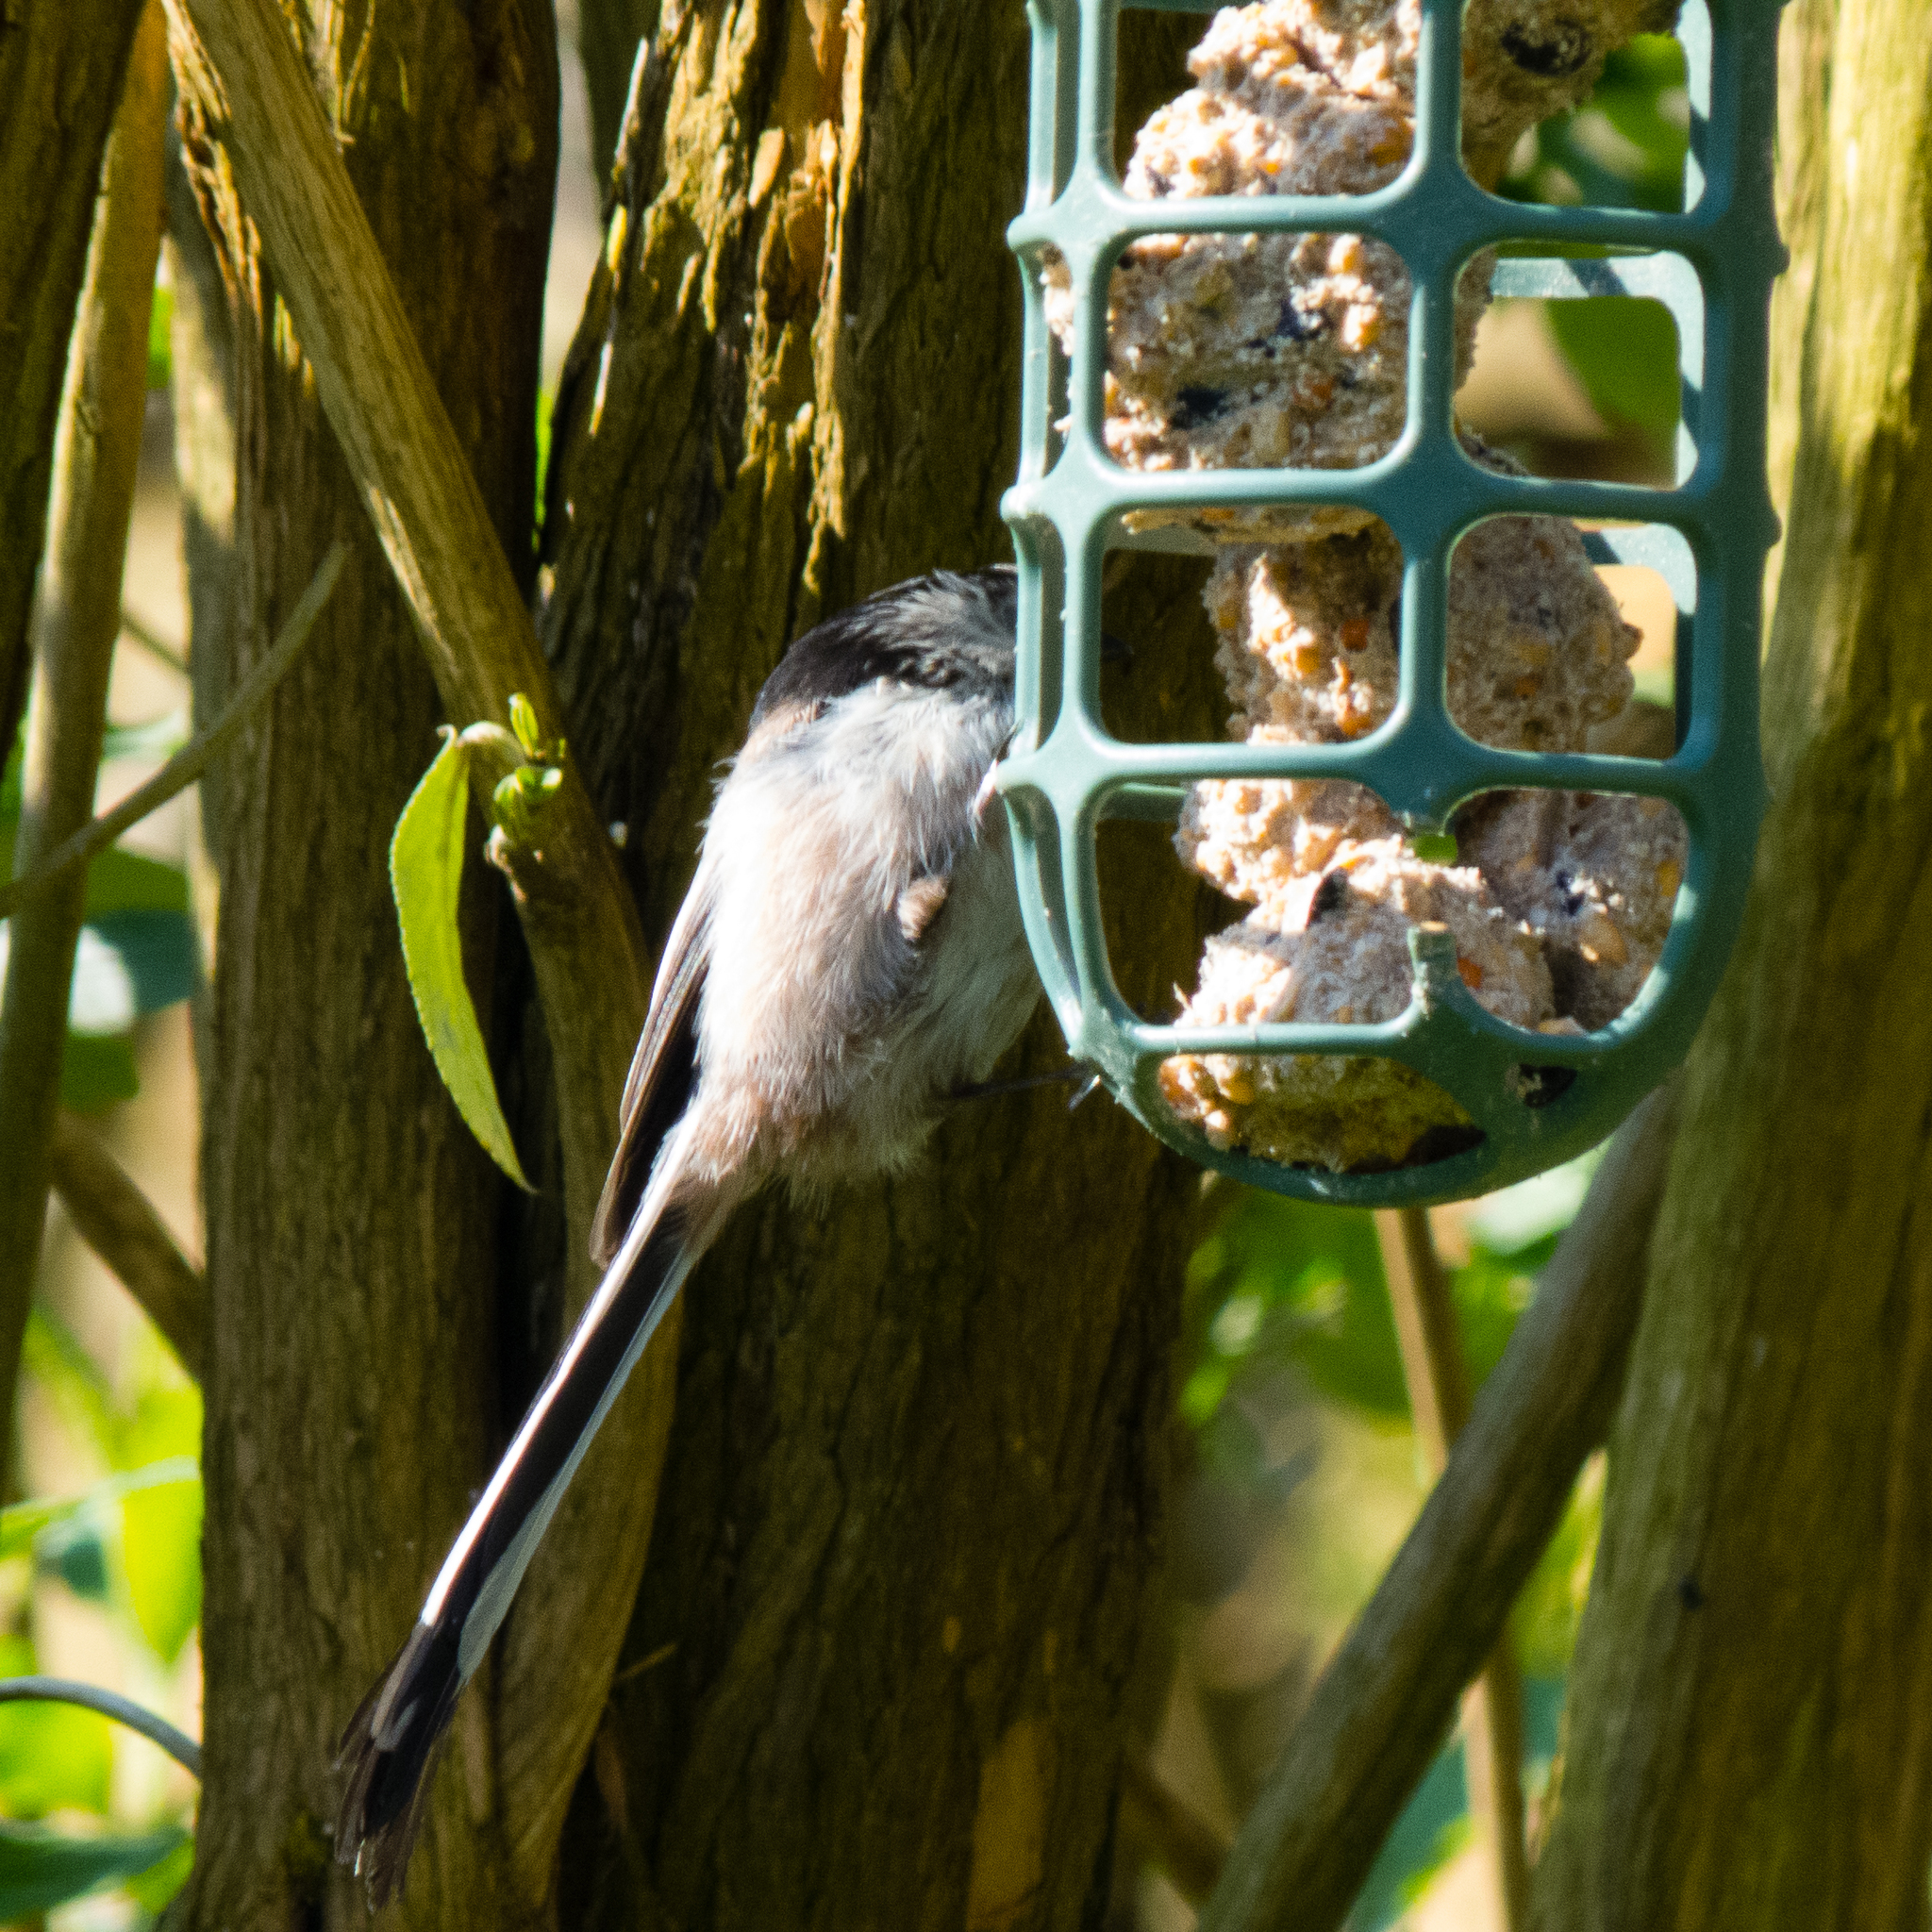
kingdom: Animalia
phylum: Chordata
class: Aves
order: Passeriformes
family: Aegithalidae
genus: Aegithalos
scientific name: Aegithalos caudatus
